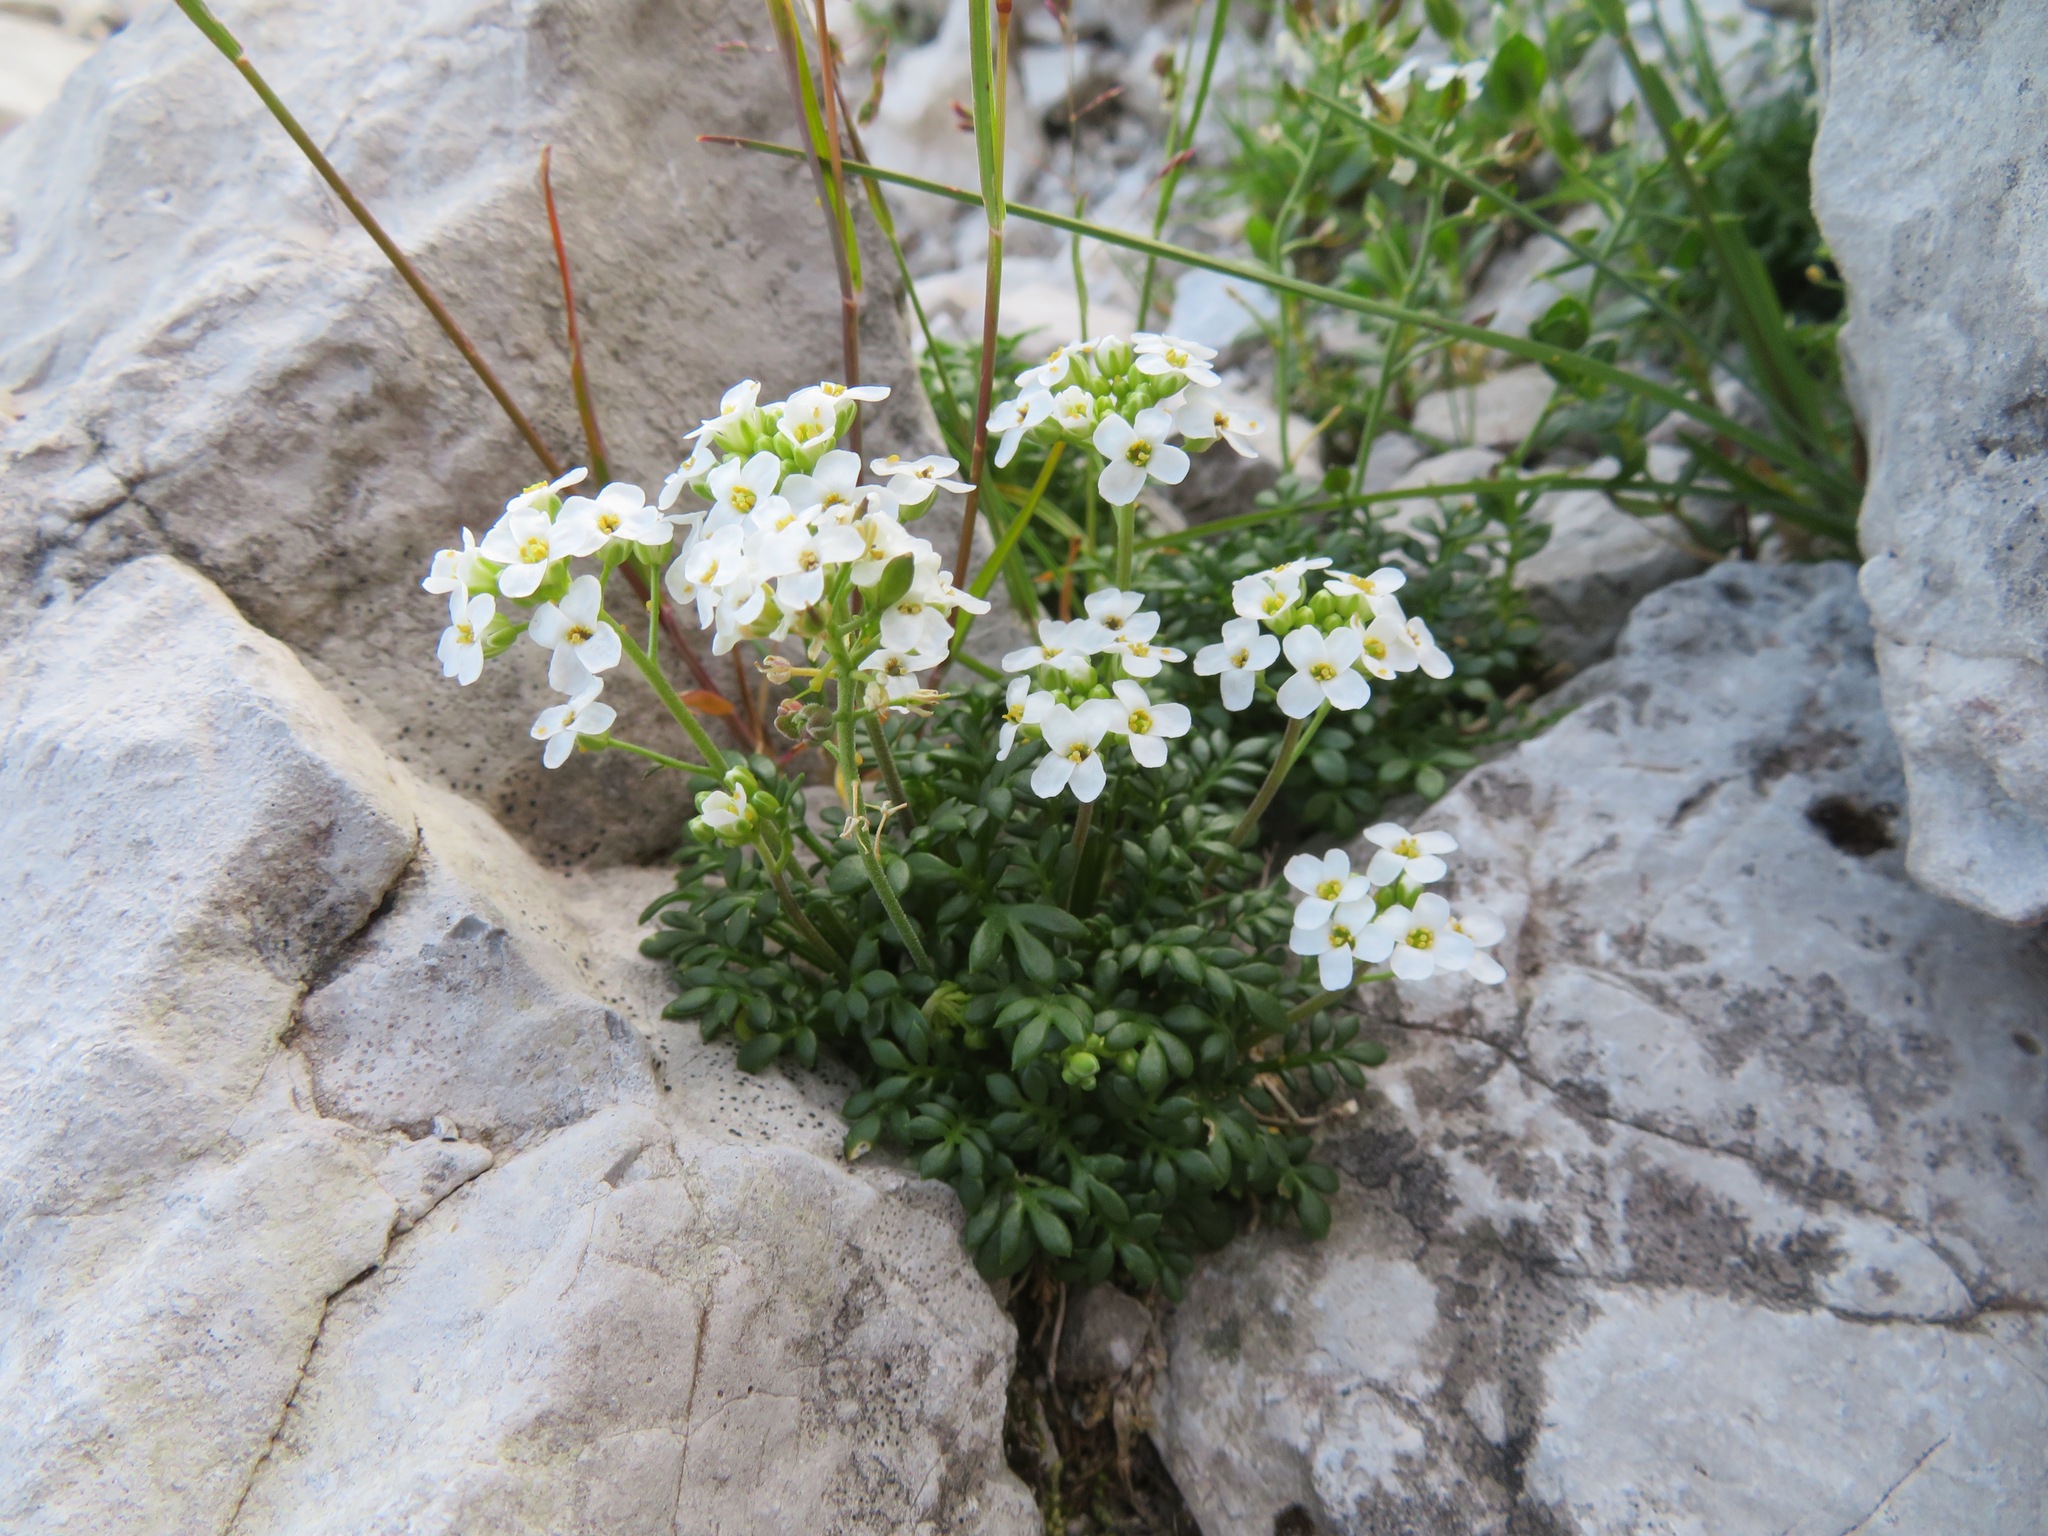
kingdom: Plantae
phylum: Tracheophyta
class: Magnoliopsida
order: Brassicales
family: Brassicaceae
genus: Hornungia
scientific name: Hornungia alpina
